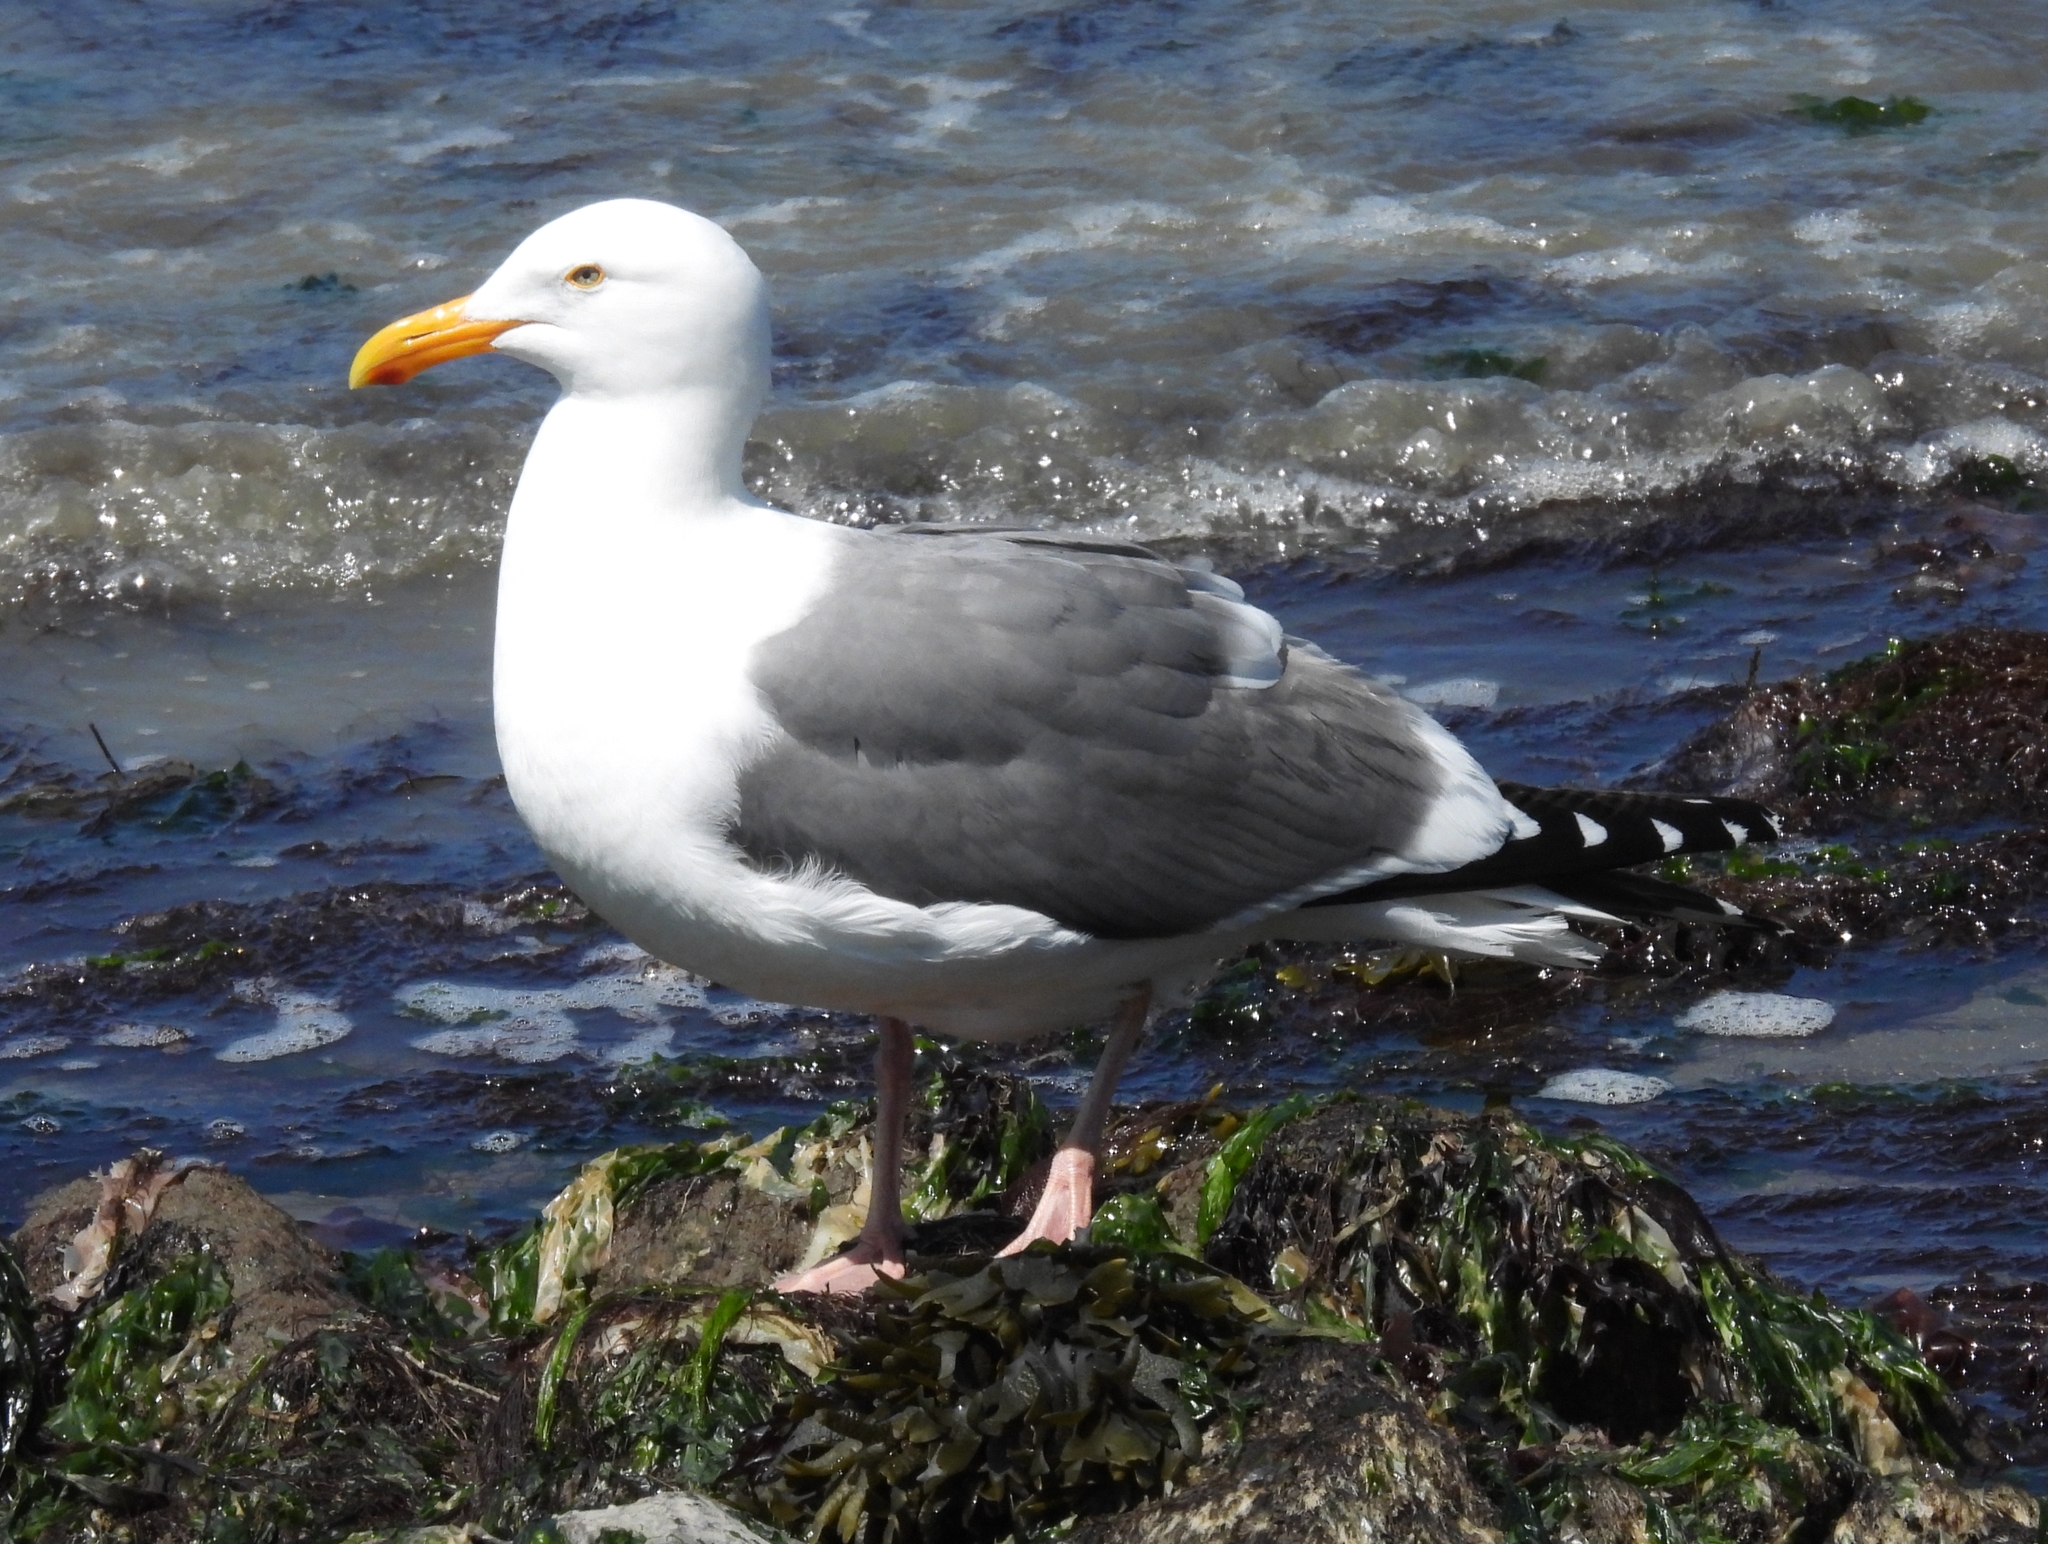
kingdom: Animalia
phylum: Chordata
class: Aves
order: Charadriiformes
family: Laridae
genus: Larus
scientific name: Larus occidentalis
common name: Western gull
